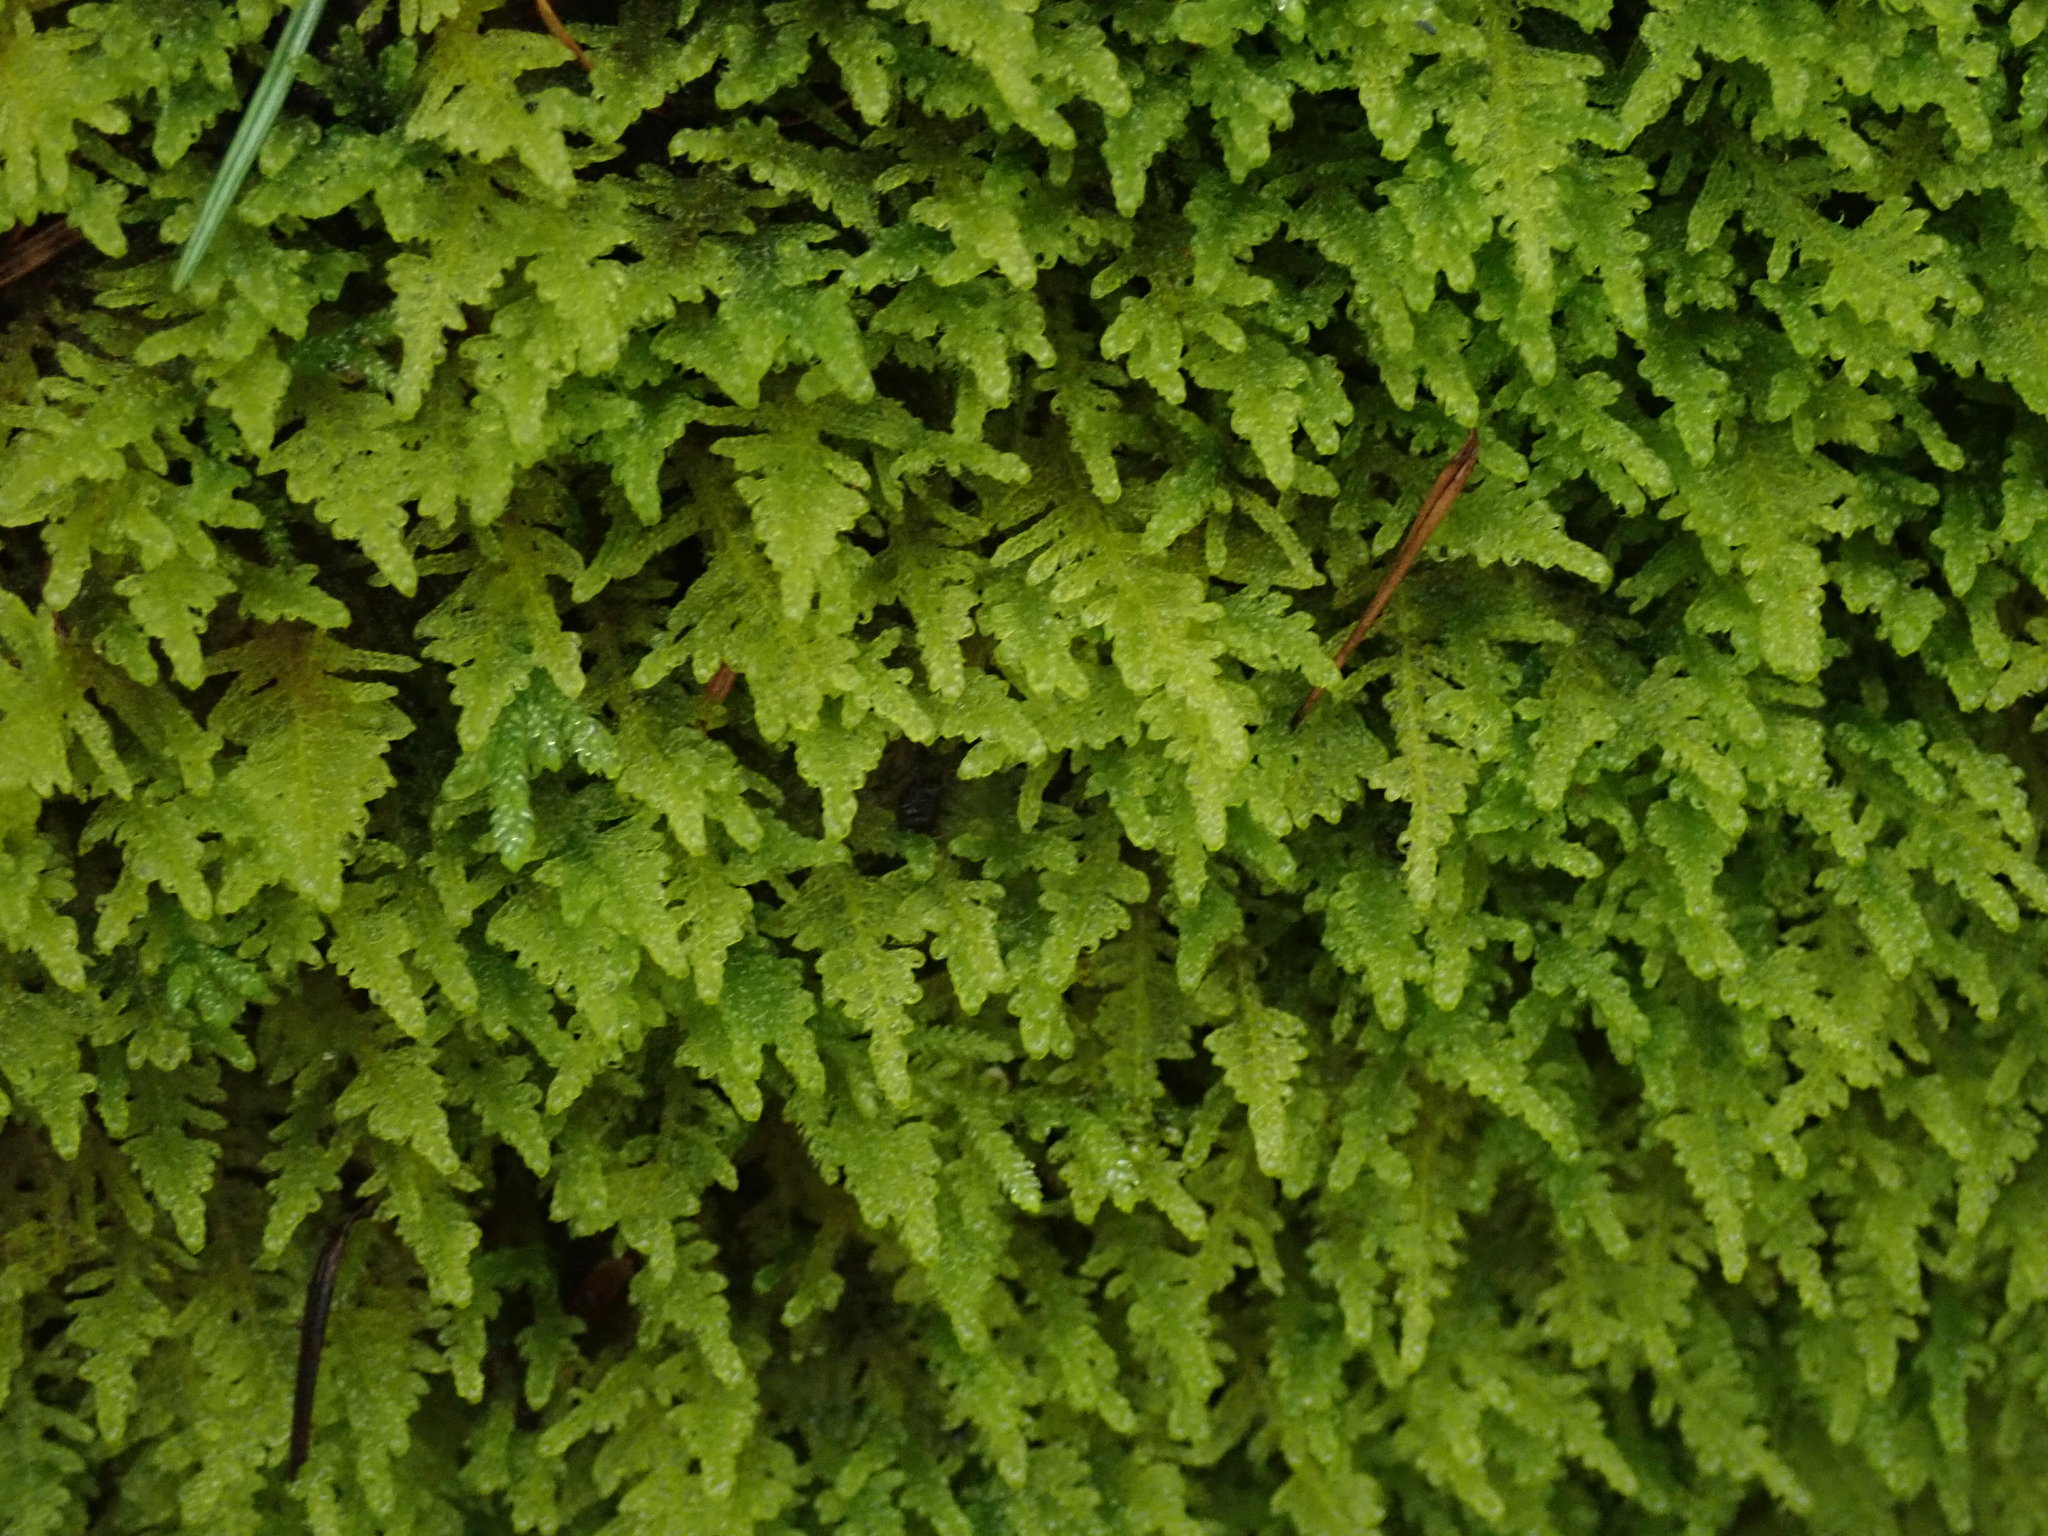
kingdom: Plantae
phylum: Bryophyta
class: Bryopsida
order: Hypnales
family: Stereodontaceae
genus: Stereodon
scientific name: Stereodon subimponens
